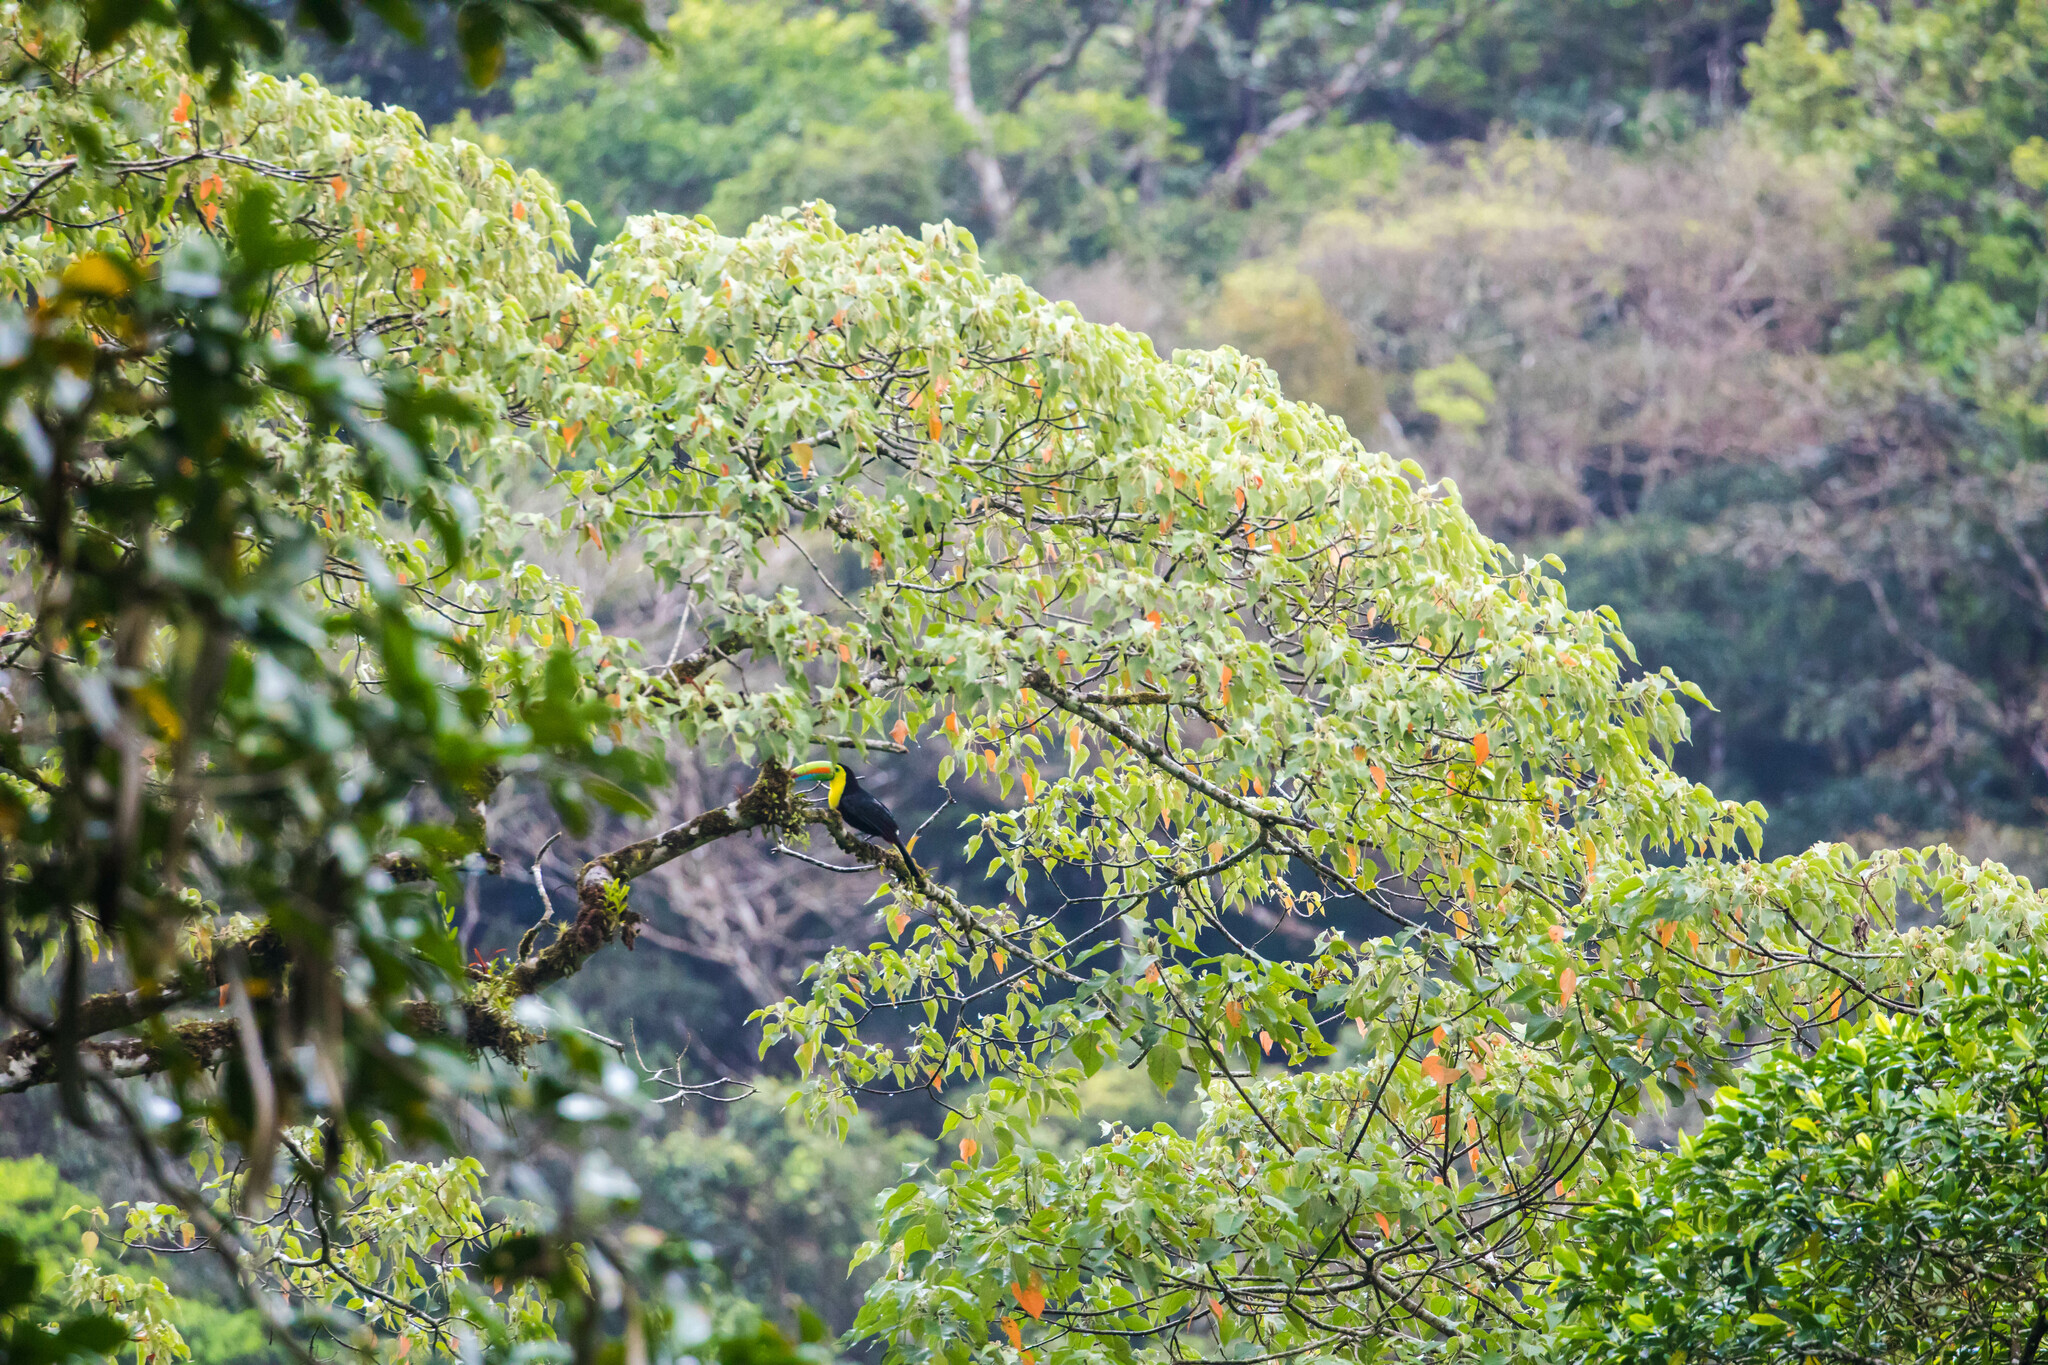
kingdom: Animalia
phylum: Chordata
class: Aves
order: Piciformes
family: Ramphastidae
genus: Ramphastos
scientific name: Ramphastos sulfuratus
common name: Keel-billed toucan
